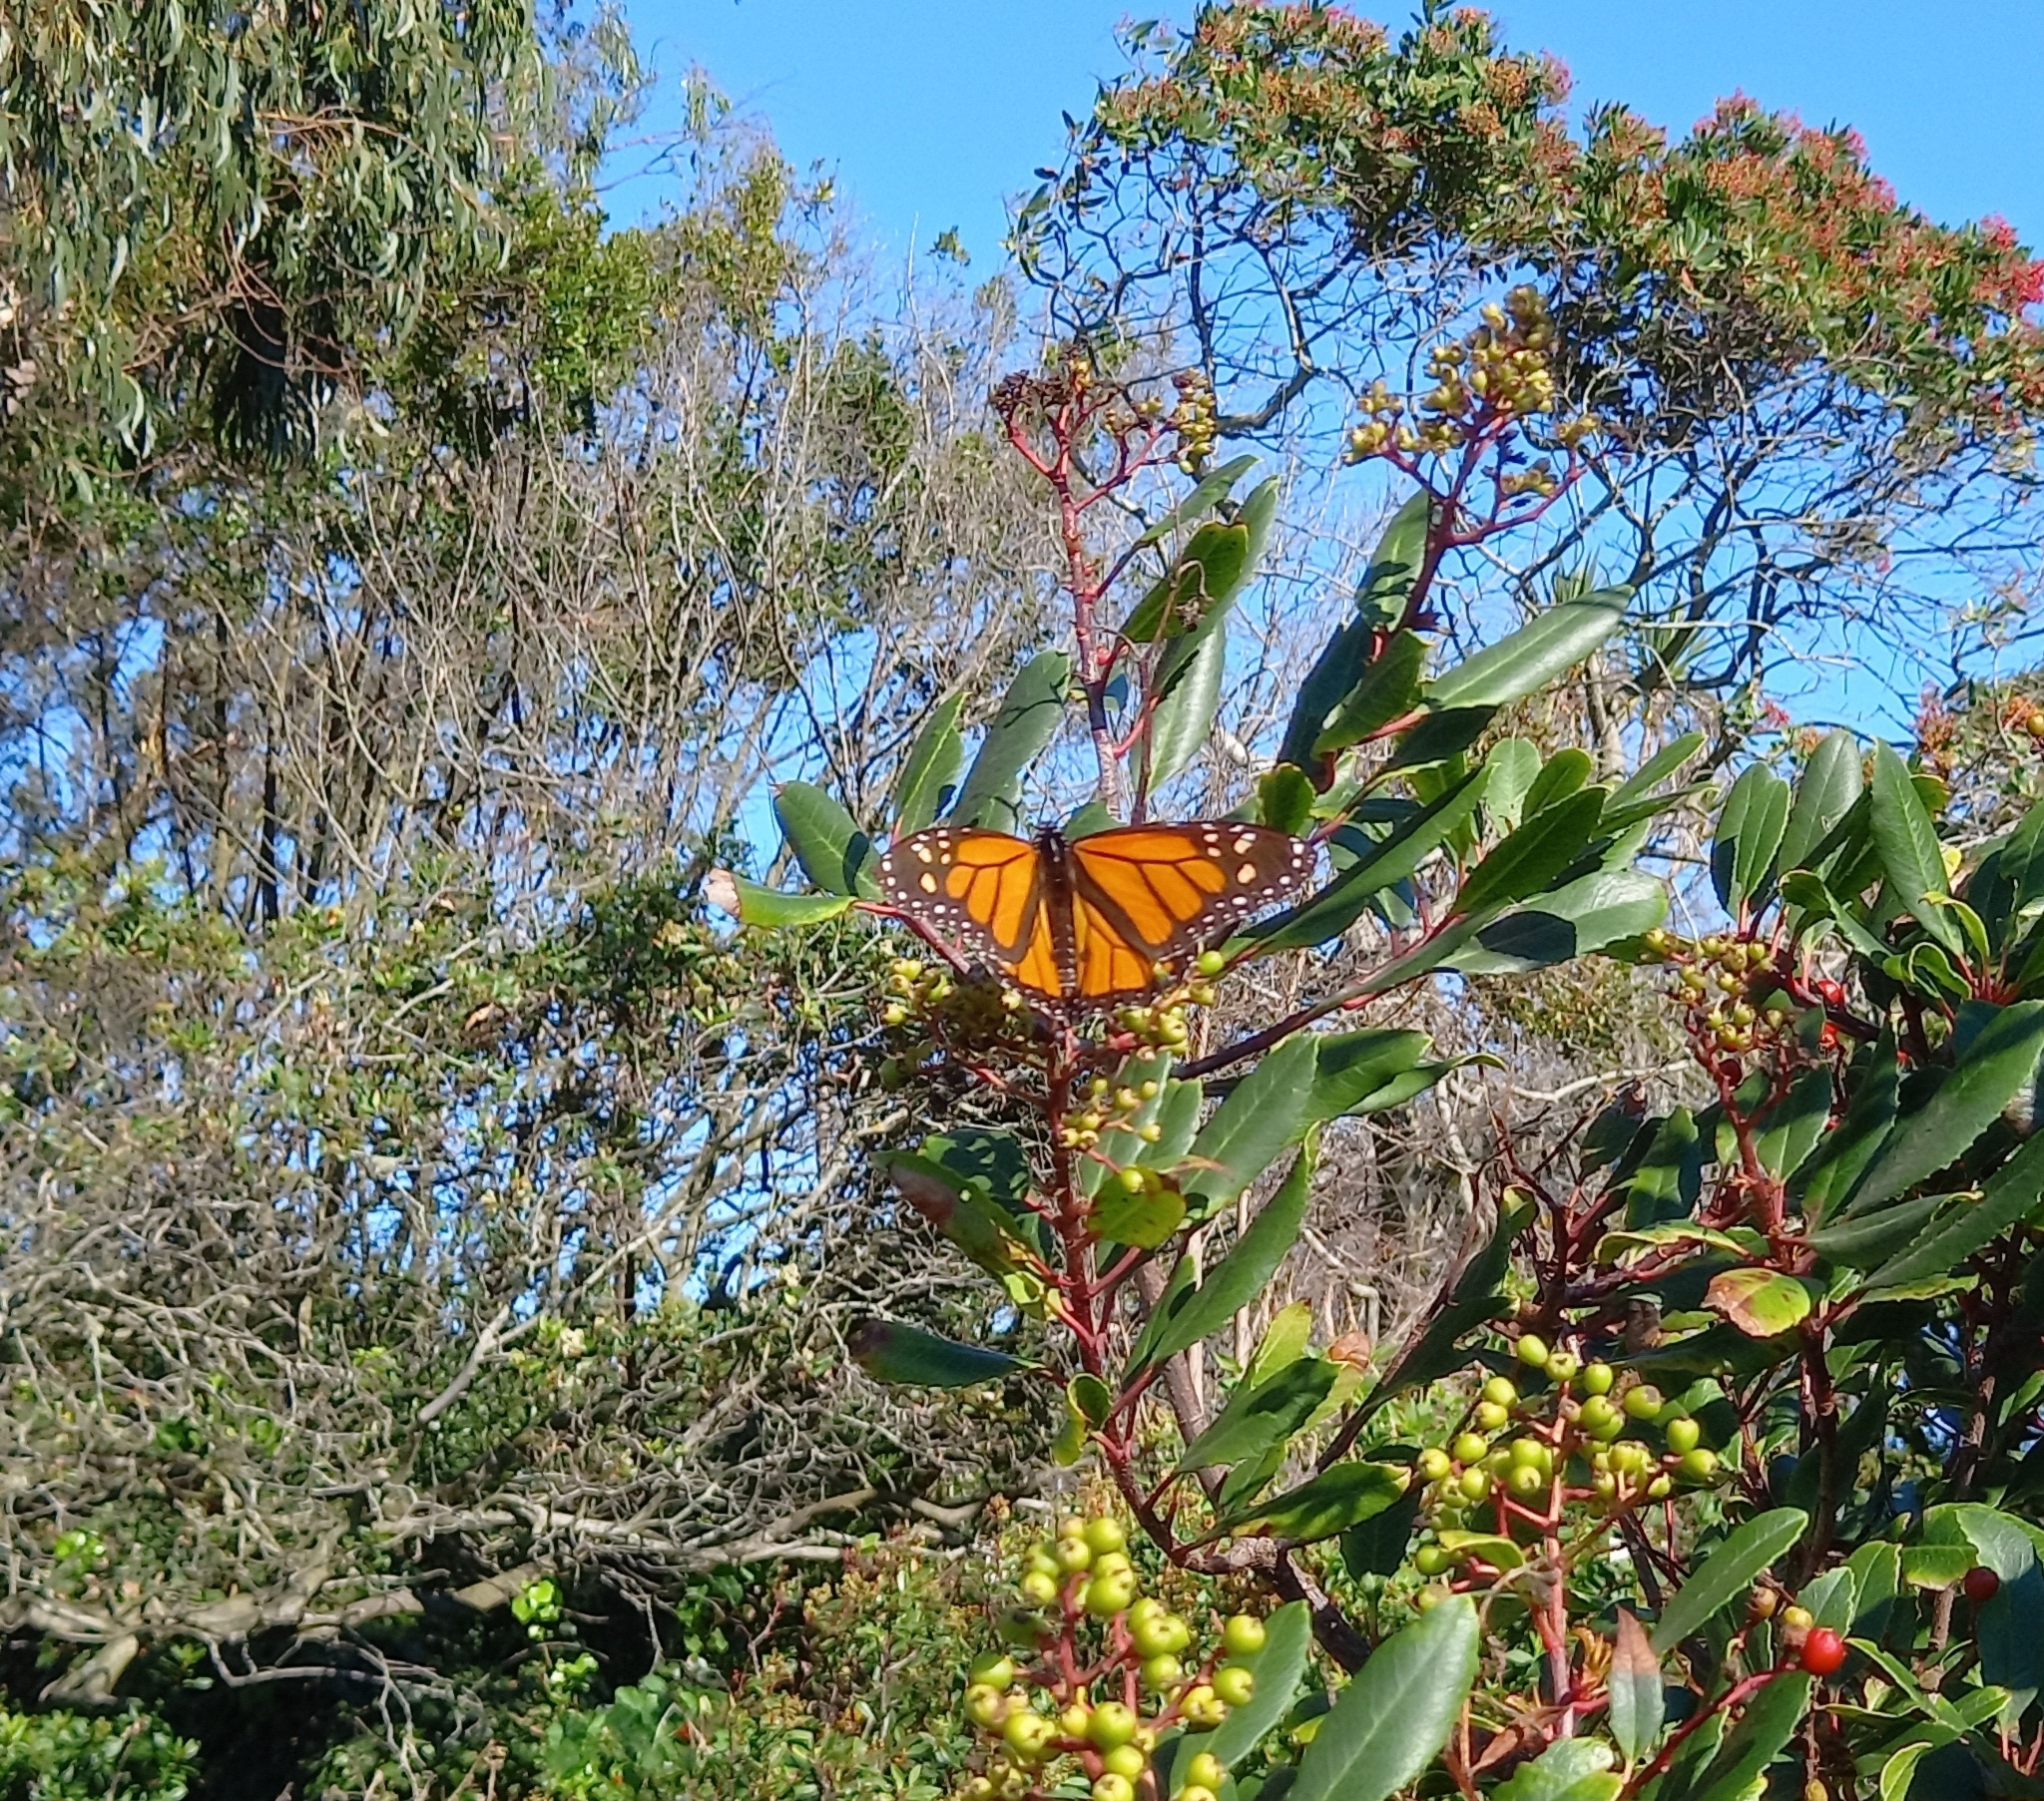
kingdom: Animalia
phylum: Arthropoda
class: Insecta
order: Lepidoptera
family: Nymphalidae
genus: Danaus
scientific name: Danaus plexippus
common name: Monarch
